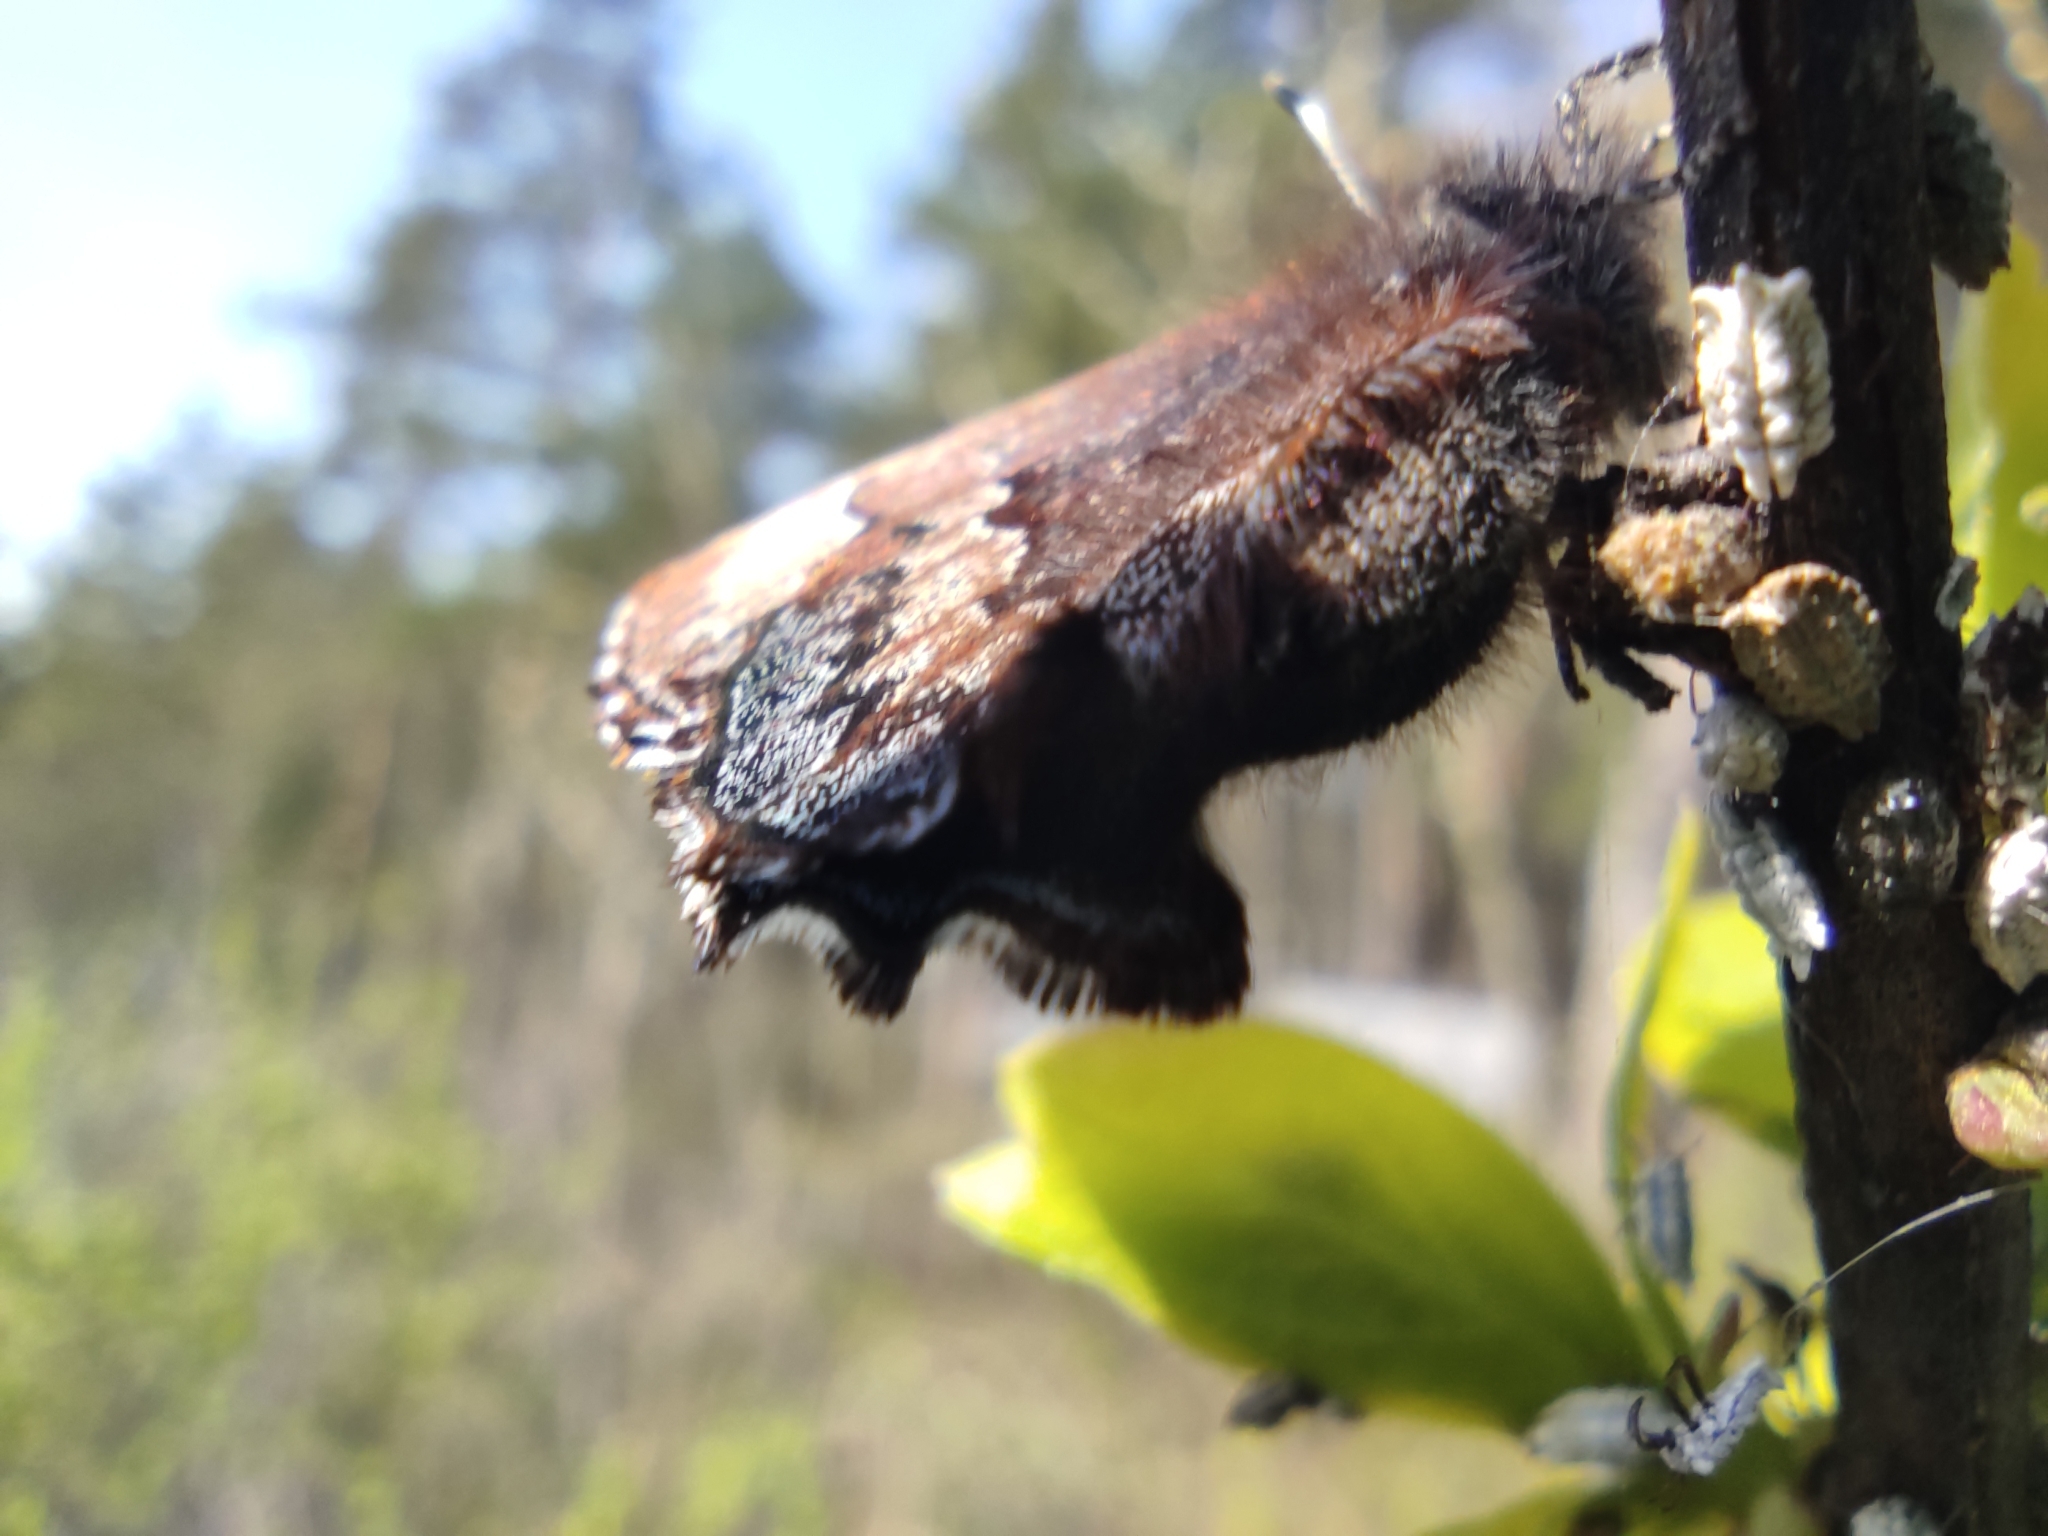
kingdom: Animalia
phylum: Arthropoda
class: Insecta
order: Lepidoptera
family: Lycaenidae
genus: Ginzia
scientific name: Ginzia Ahlbergia frivaldszkyi
